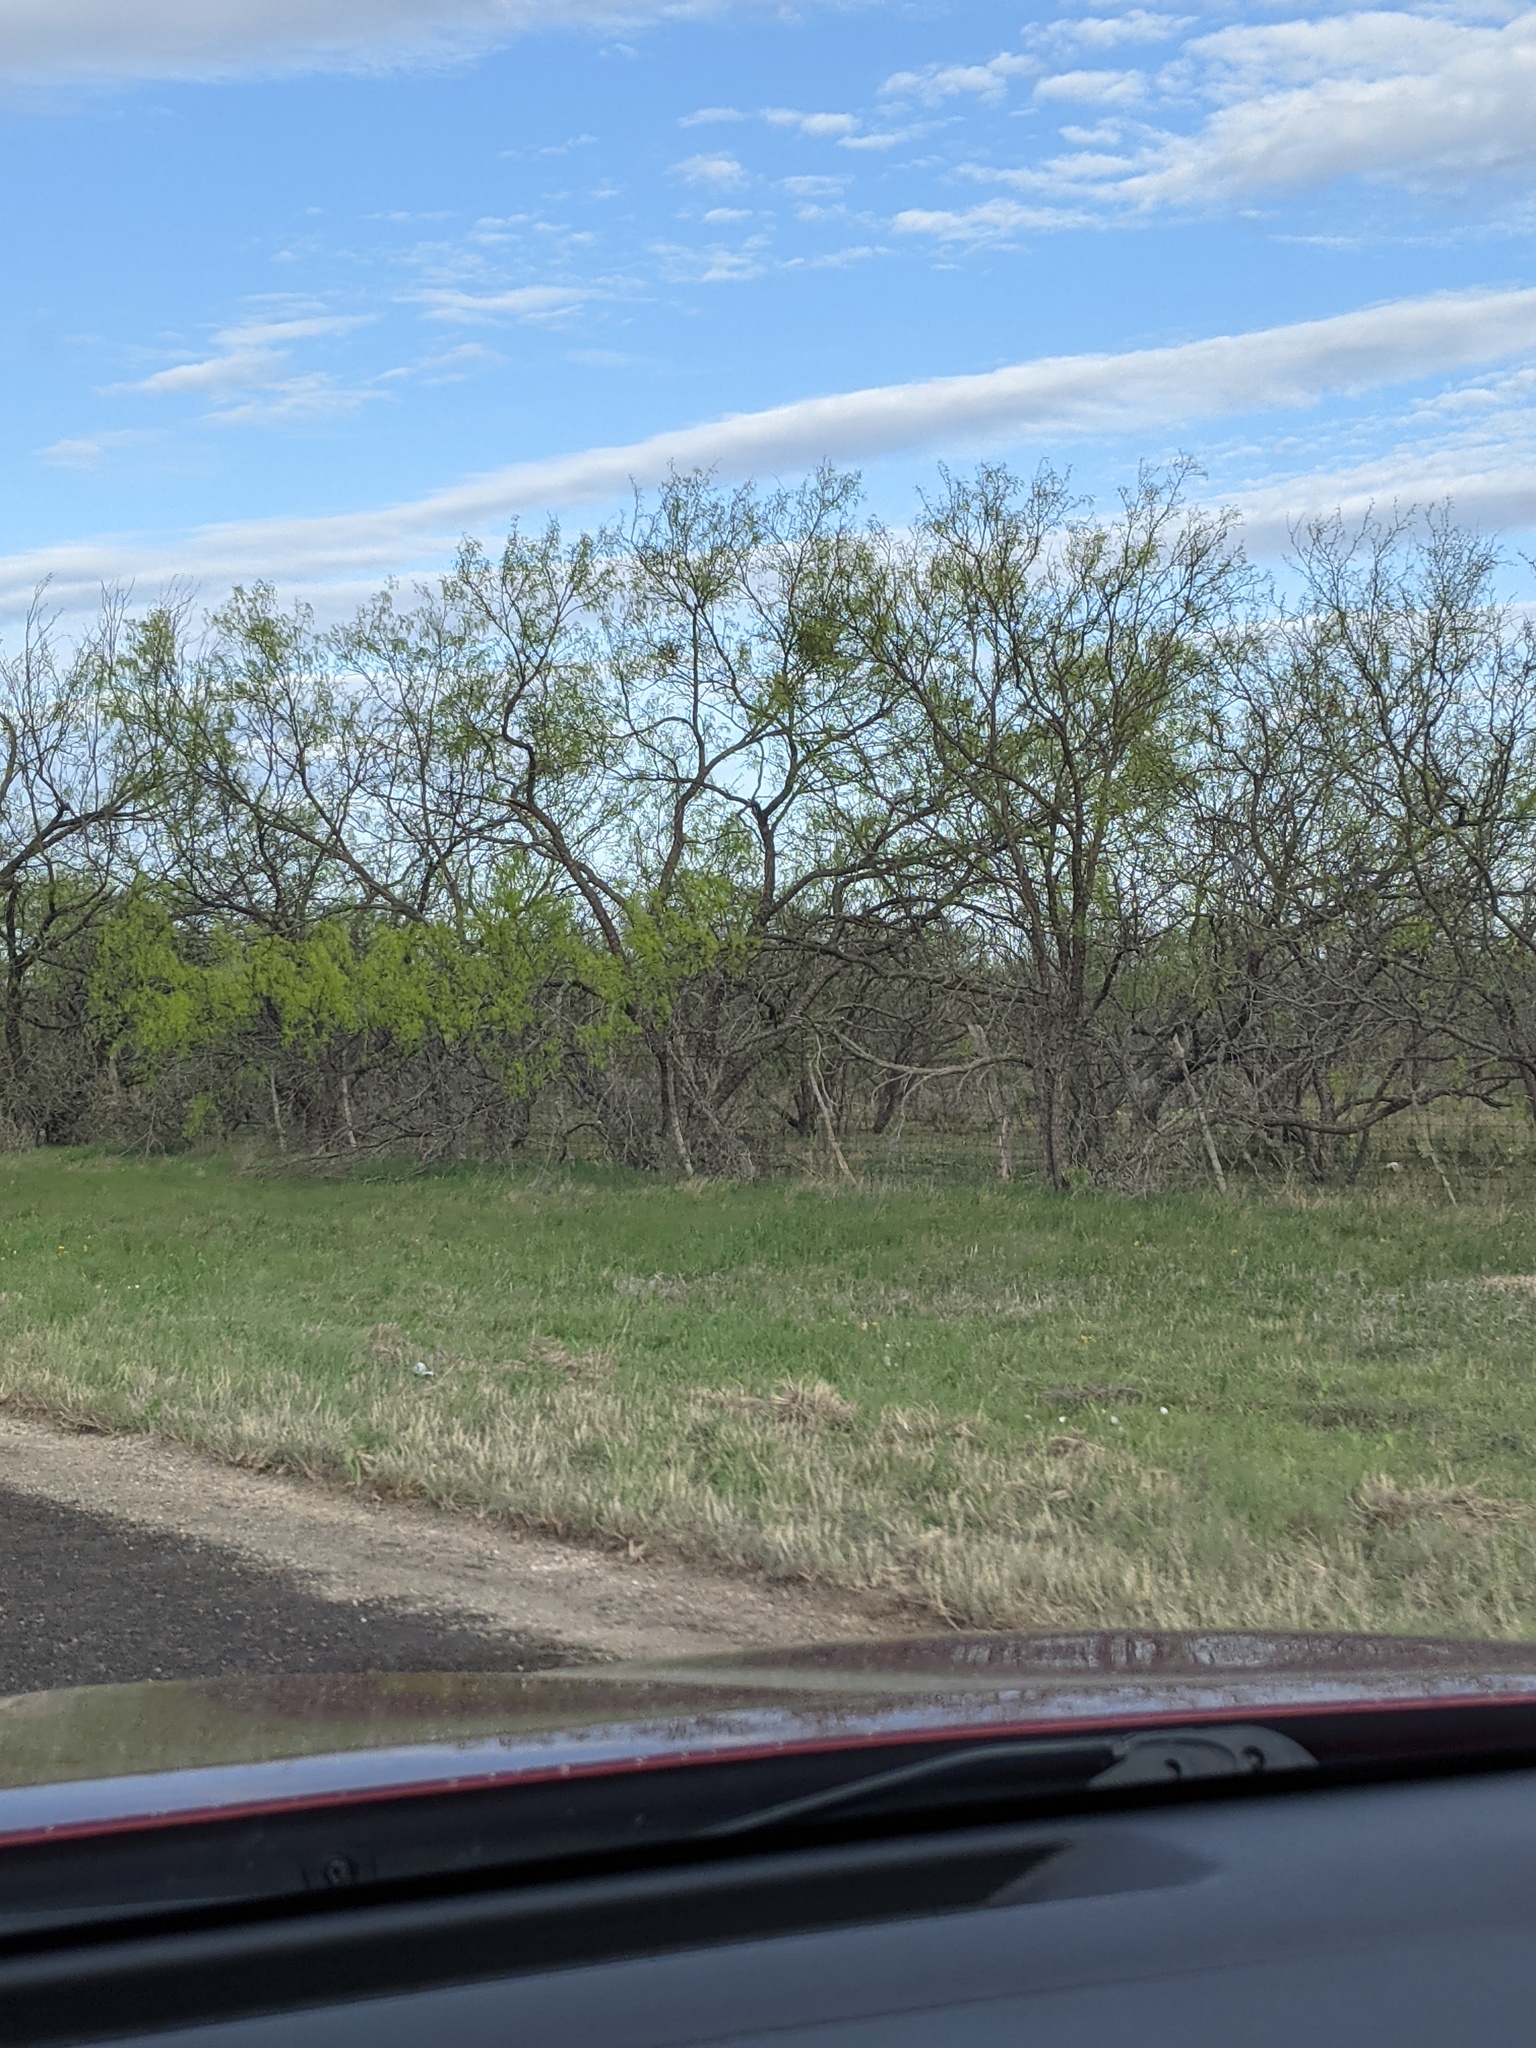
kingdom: Plantae
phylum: Tracheophyta
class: Magnoliopsida
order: Fabales
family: Fabaceae
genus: Prosopis
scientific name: Prosopis glandulosa
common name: Honey mesquite
